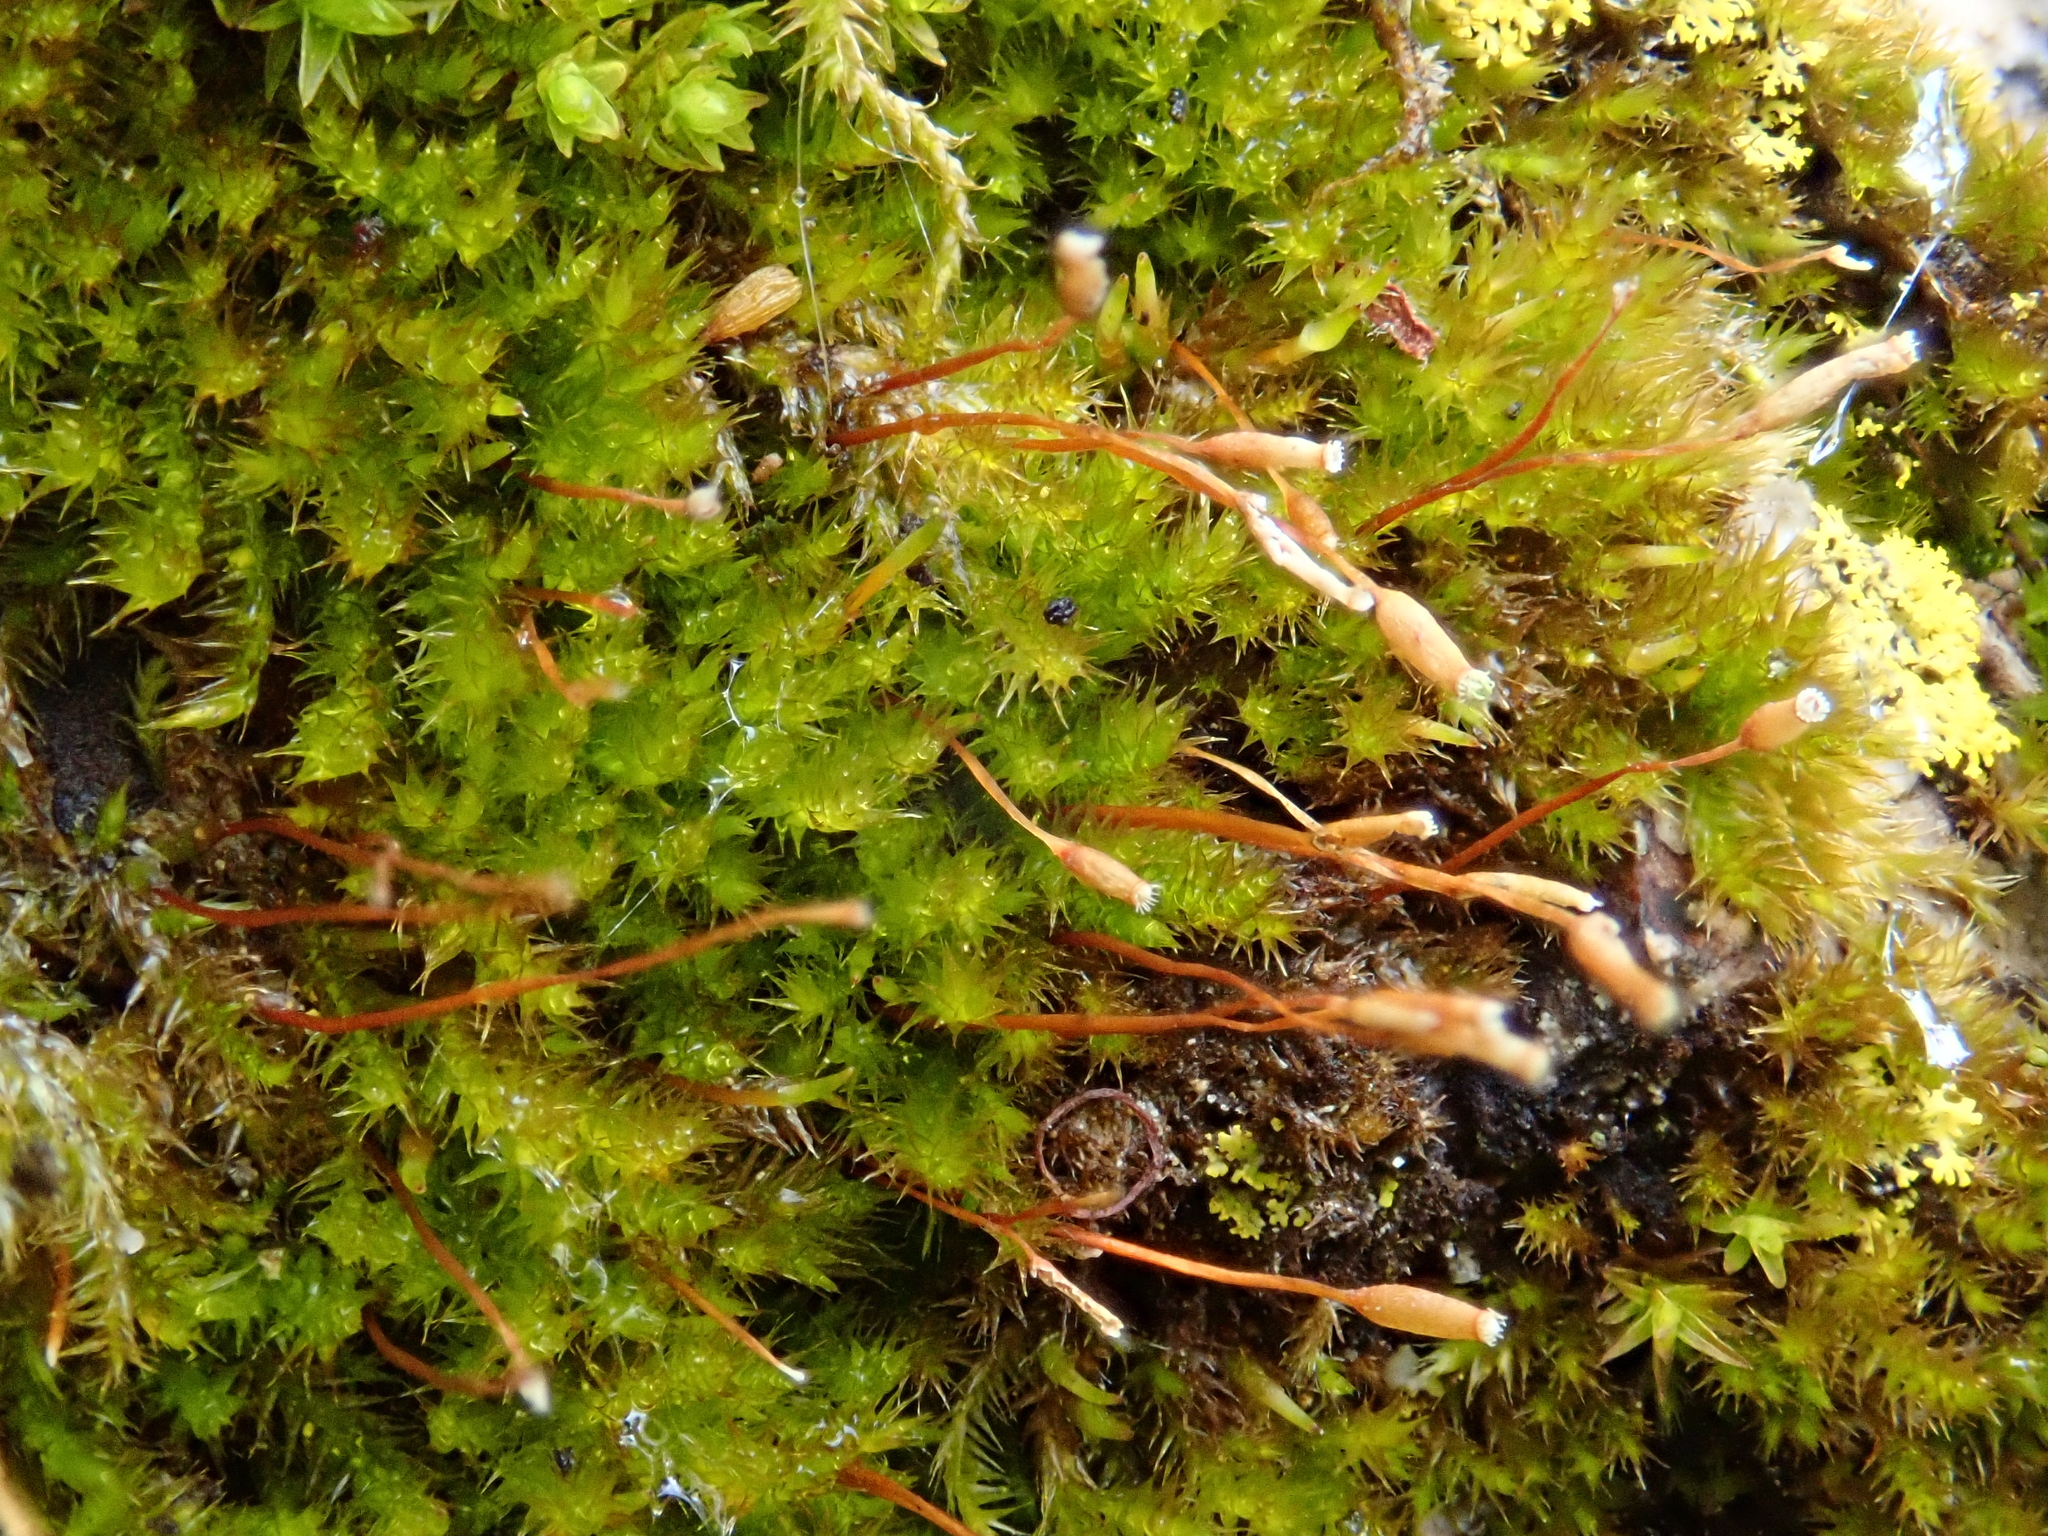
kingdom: Plantae
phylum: Bryophyta
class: Bryopsida
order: Hypnales
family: Pylaisiaceae
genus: Pylaisia
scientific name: Pylaisia polyantha
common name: Many-flowered leskea
